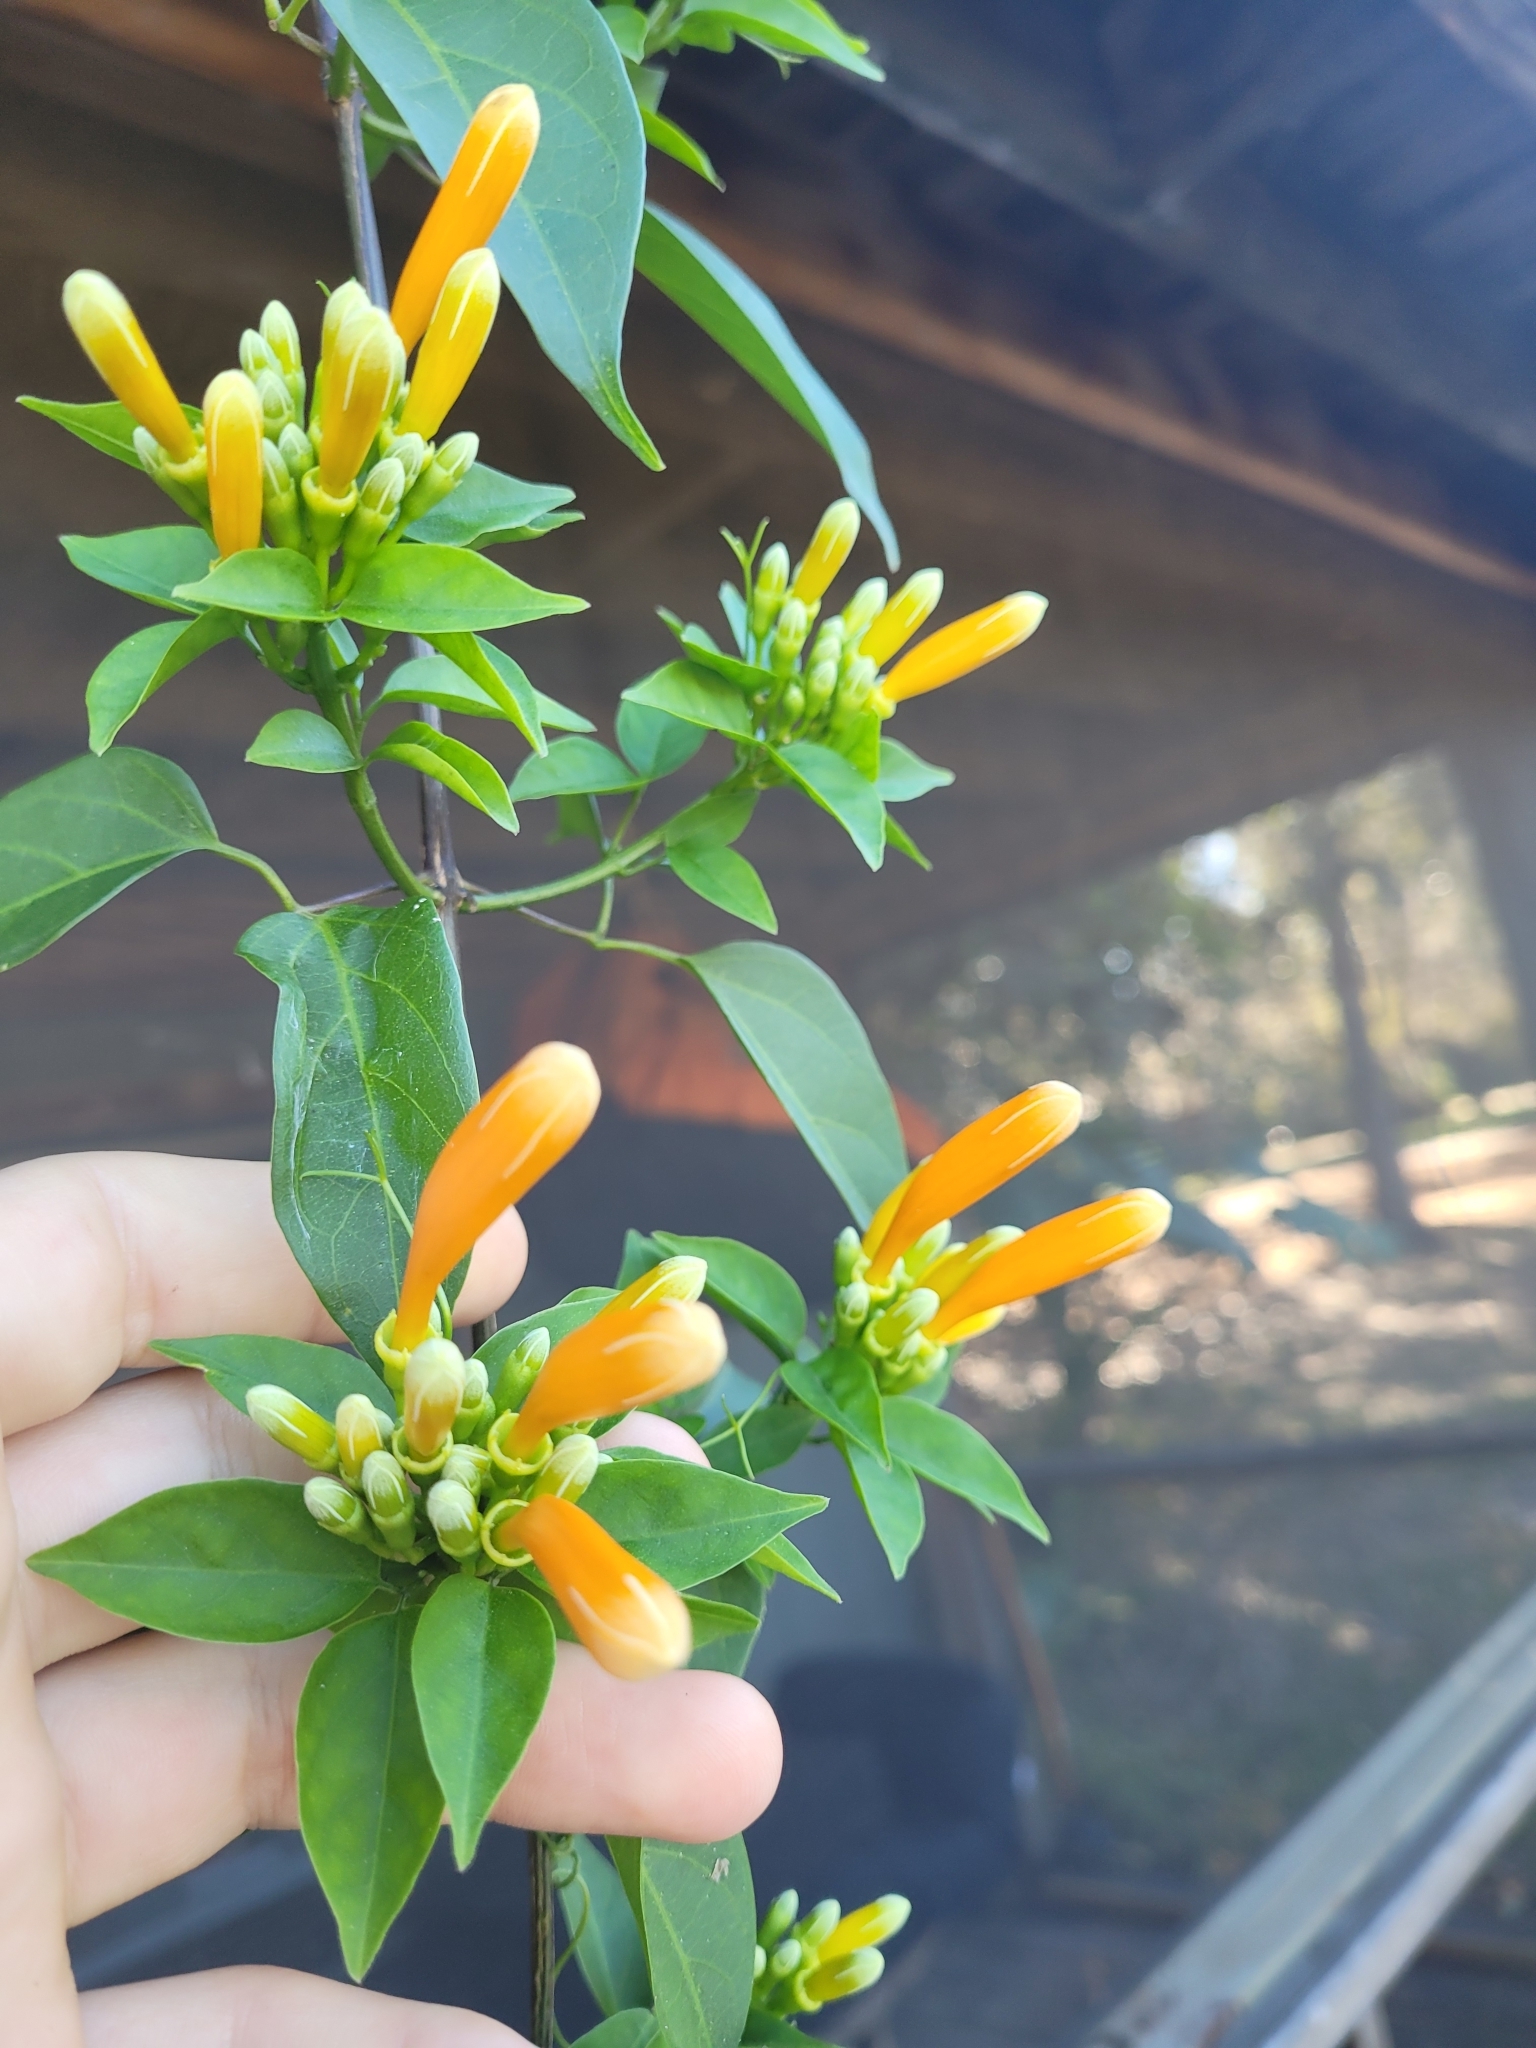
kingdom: Plantae
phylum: Tracheophyta
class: Magnoliopsida
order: Lamiales
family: Bignoniaceae
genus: Pyrostegia
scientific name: Pyrostegia venusta
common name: Flamevine
